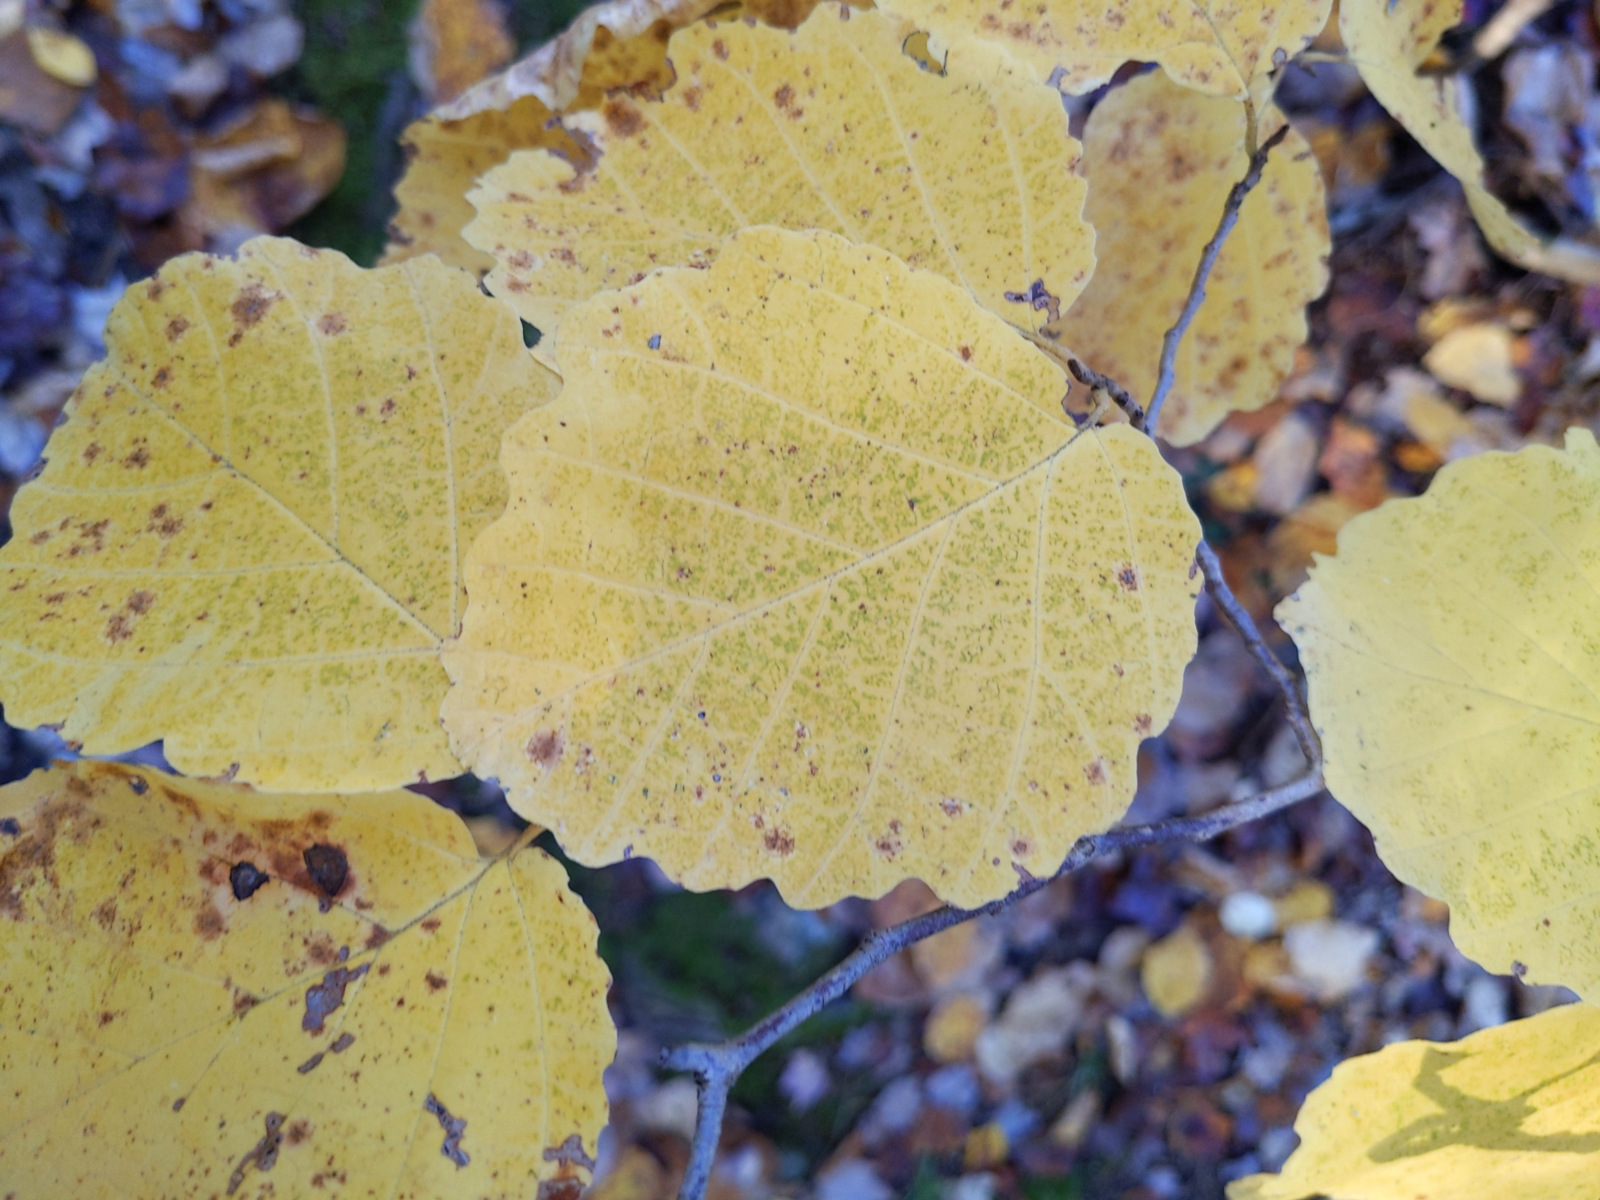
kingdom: Plantae
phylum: Tracheophyta
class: Magnoliopsida
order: Saxifragales
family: Hamamelidaceae
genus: Hamamelis
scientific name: Hamamelis virginiana
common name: Witch-hazel
